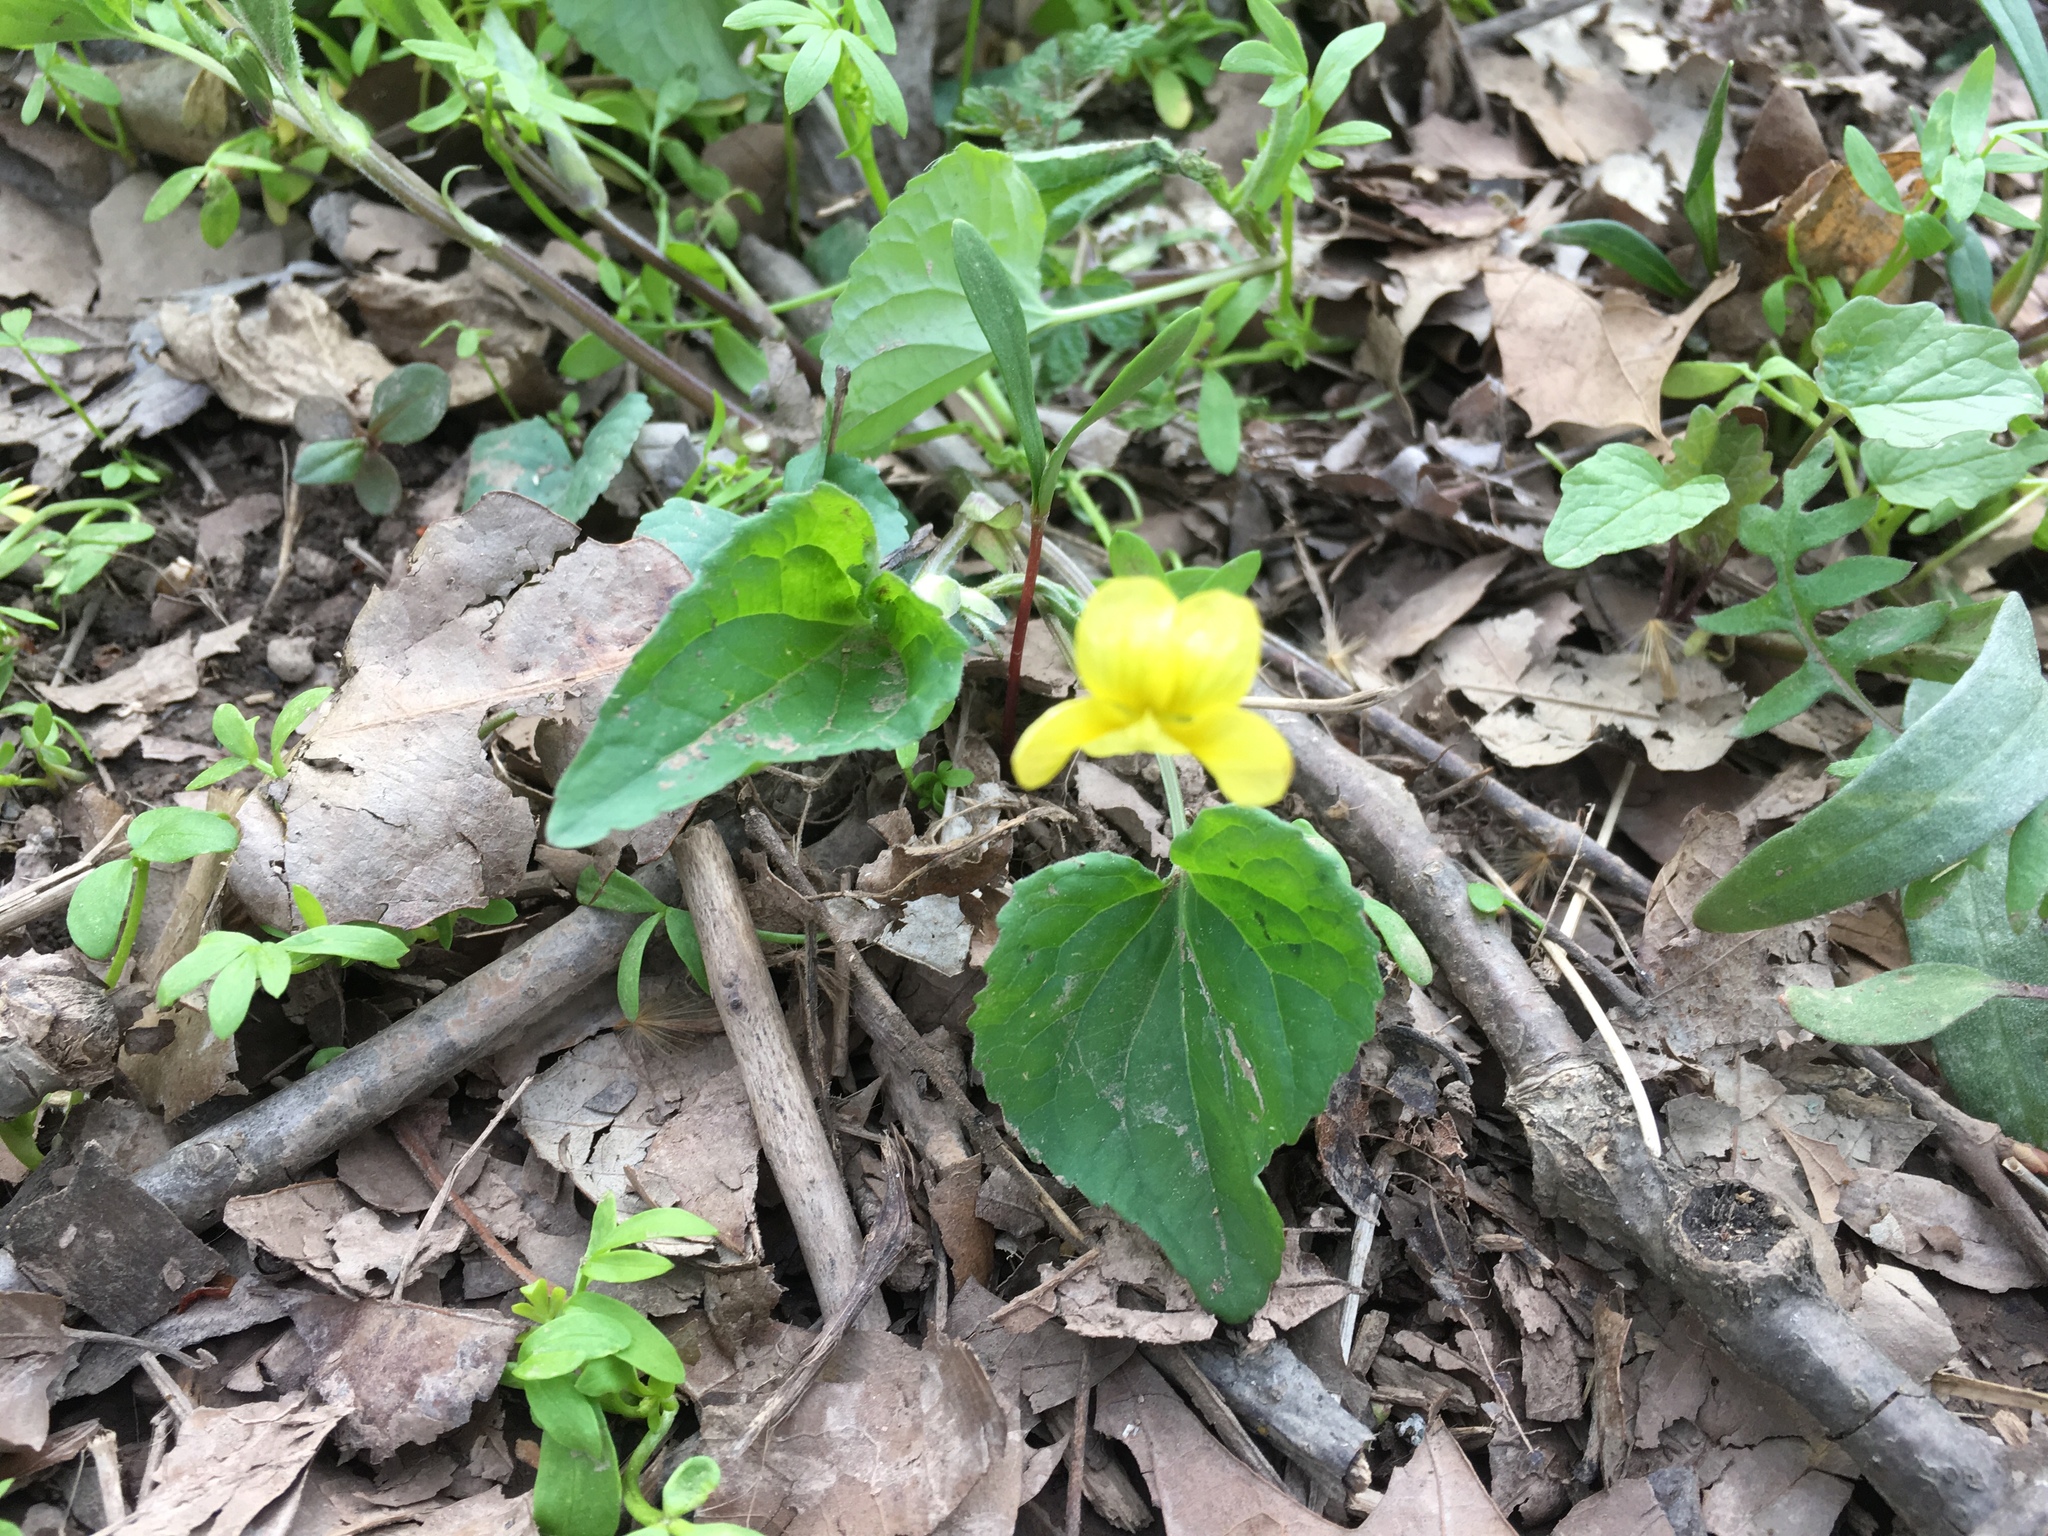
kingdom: Plantae
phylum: Tracheophyta
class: Magnoliopsida
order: Malpighiales
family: Violaceae
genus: Viola
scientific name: Viola eriocarpa
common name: Smooth yellow violet
